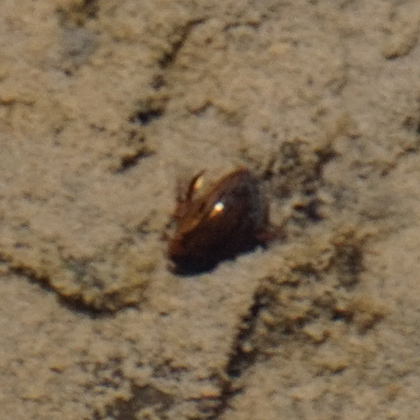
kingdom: Animalia
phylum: Arthropoda
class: Insecta
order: Coleoptera
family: Hydrophilidae
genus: Tropisternus
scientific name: Tropisternus collaris
